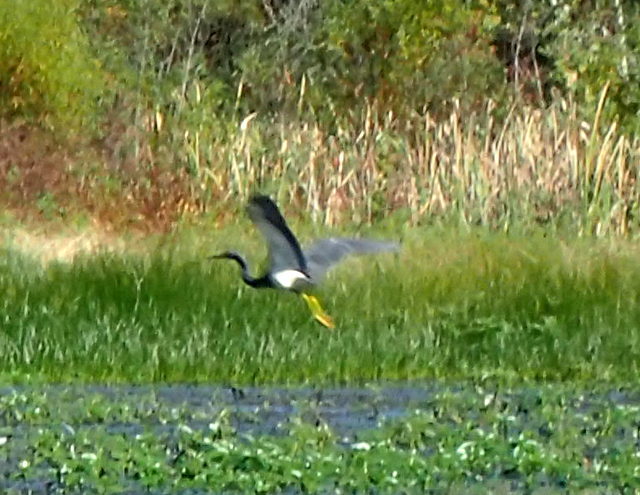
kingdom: Animalia
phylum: Chordata
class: Aves
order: Pelecaniformes
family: Ardeidae
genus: Egretta
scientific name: Egretta tricolor
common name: Tricolored heron
